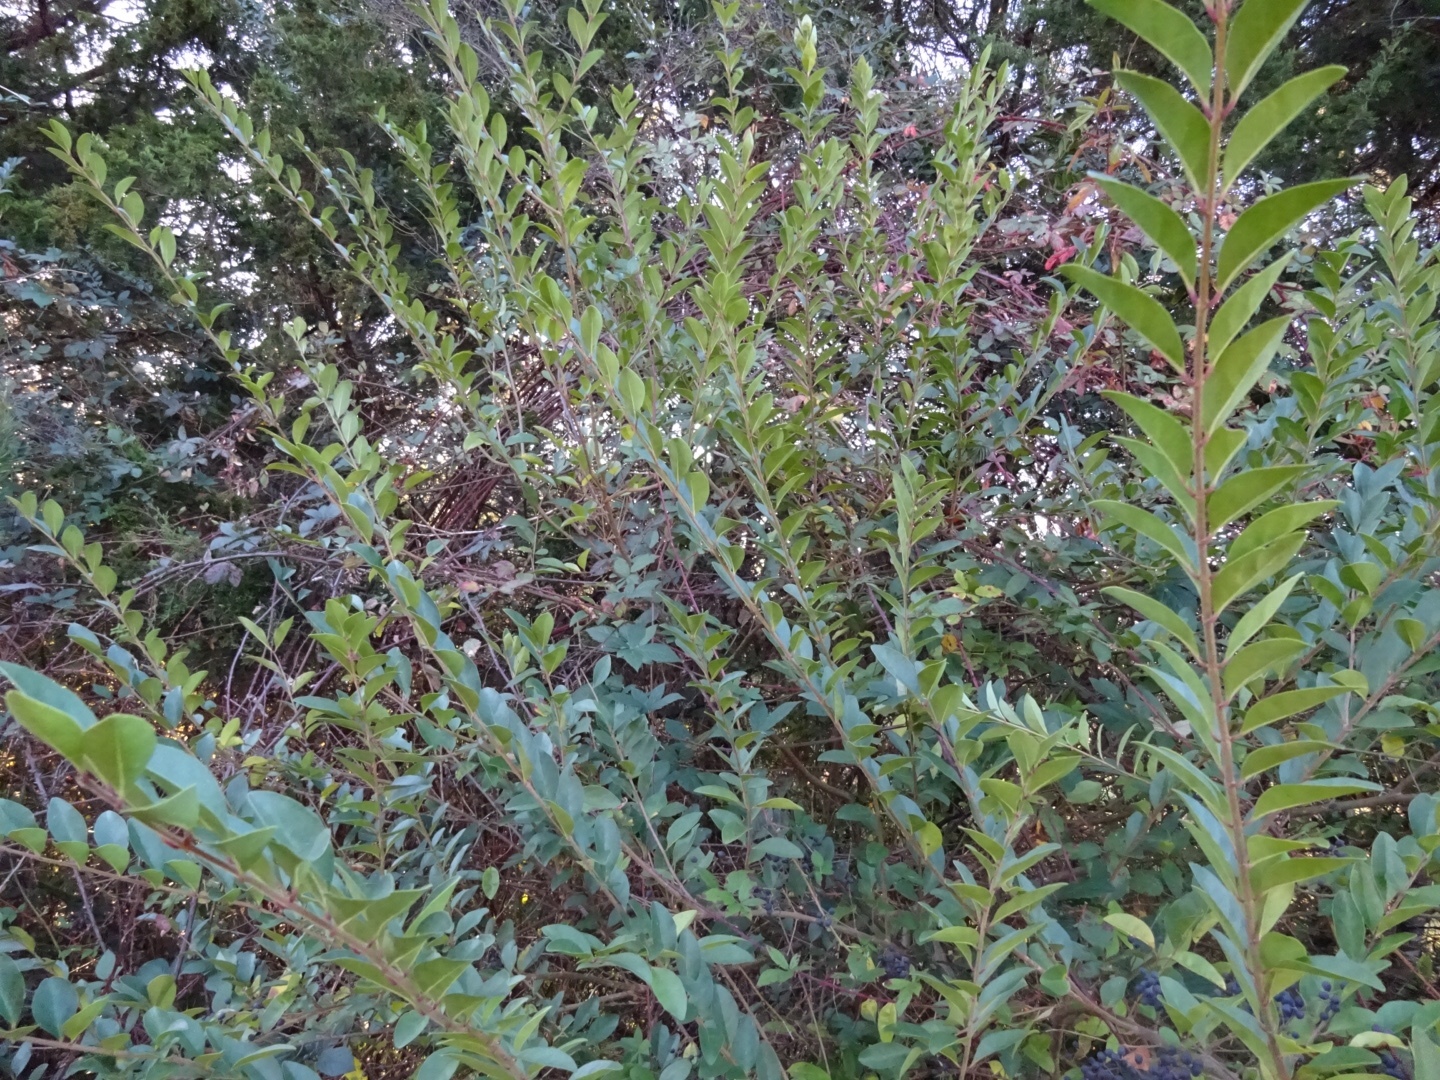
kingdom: Plantae
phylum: Tracheophyta
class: Magnoliopsida
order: Lamiales
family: Oleaceae
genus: Ligustrum
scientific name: Ligustrum sinense
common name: Chinese privet
